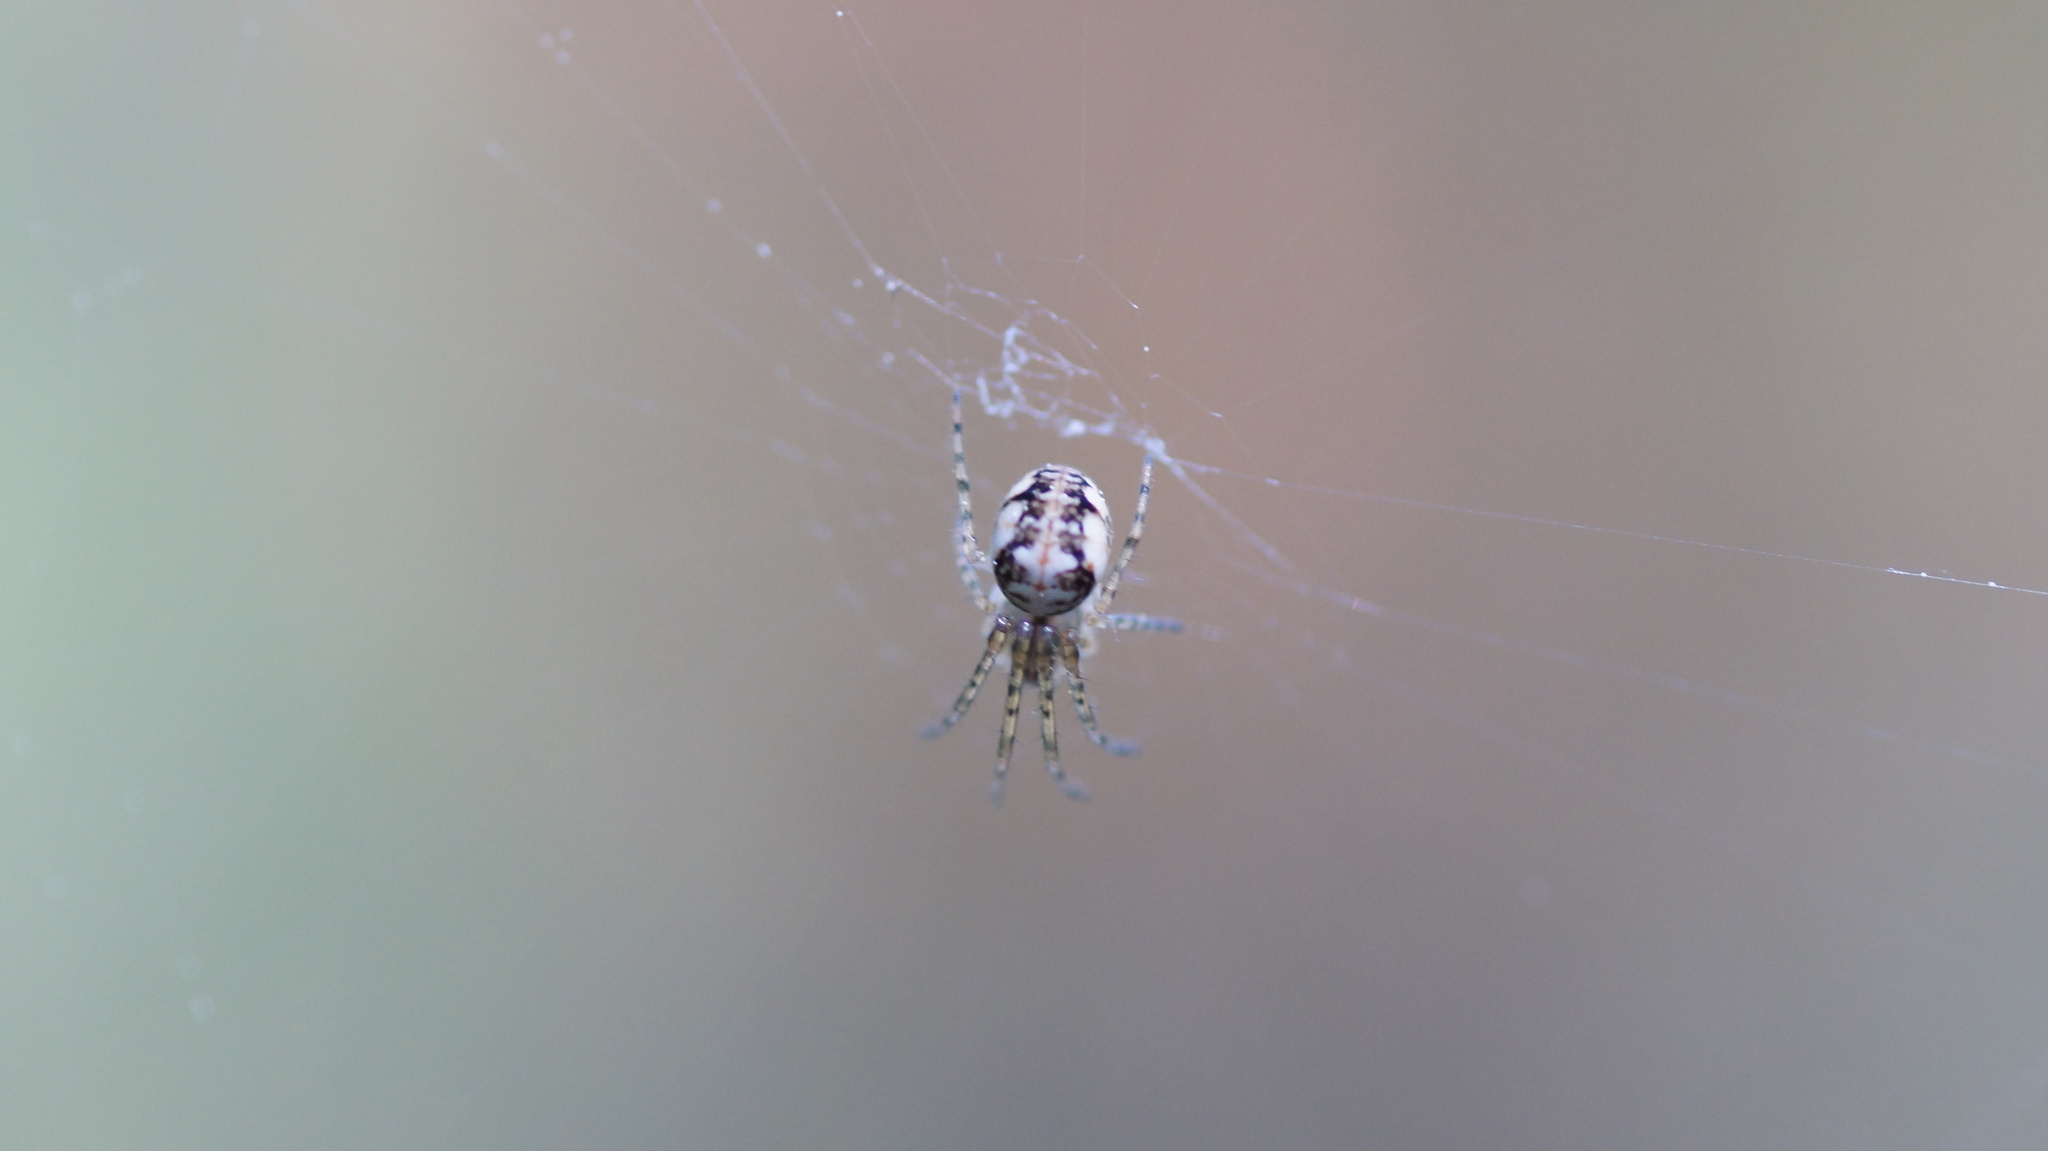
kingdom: Animalia
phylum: Arthropoda
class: Arachnida
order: Araneae
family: Tetragnathidae
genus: Metellina
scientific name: Metellina
